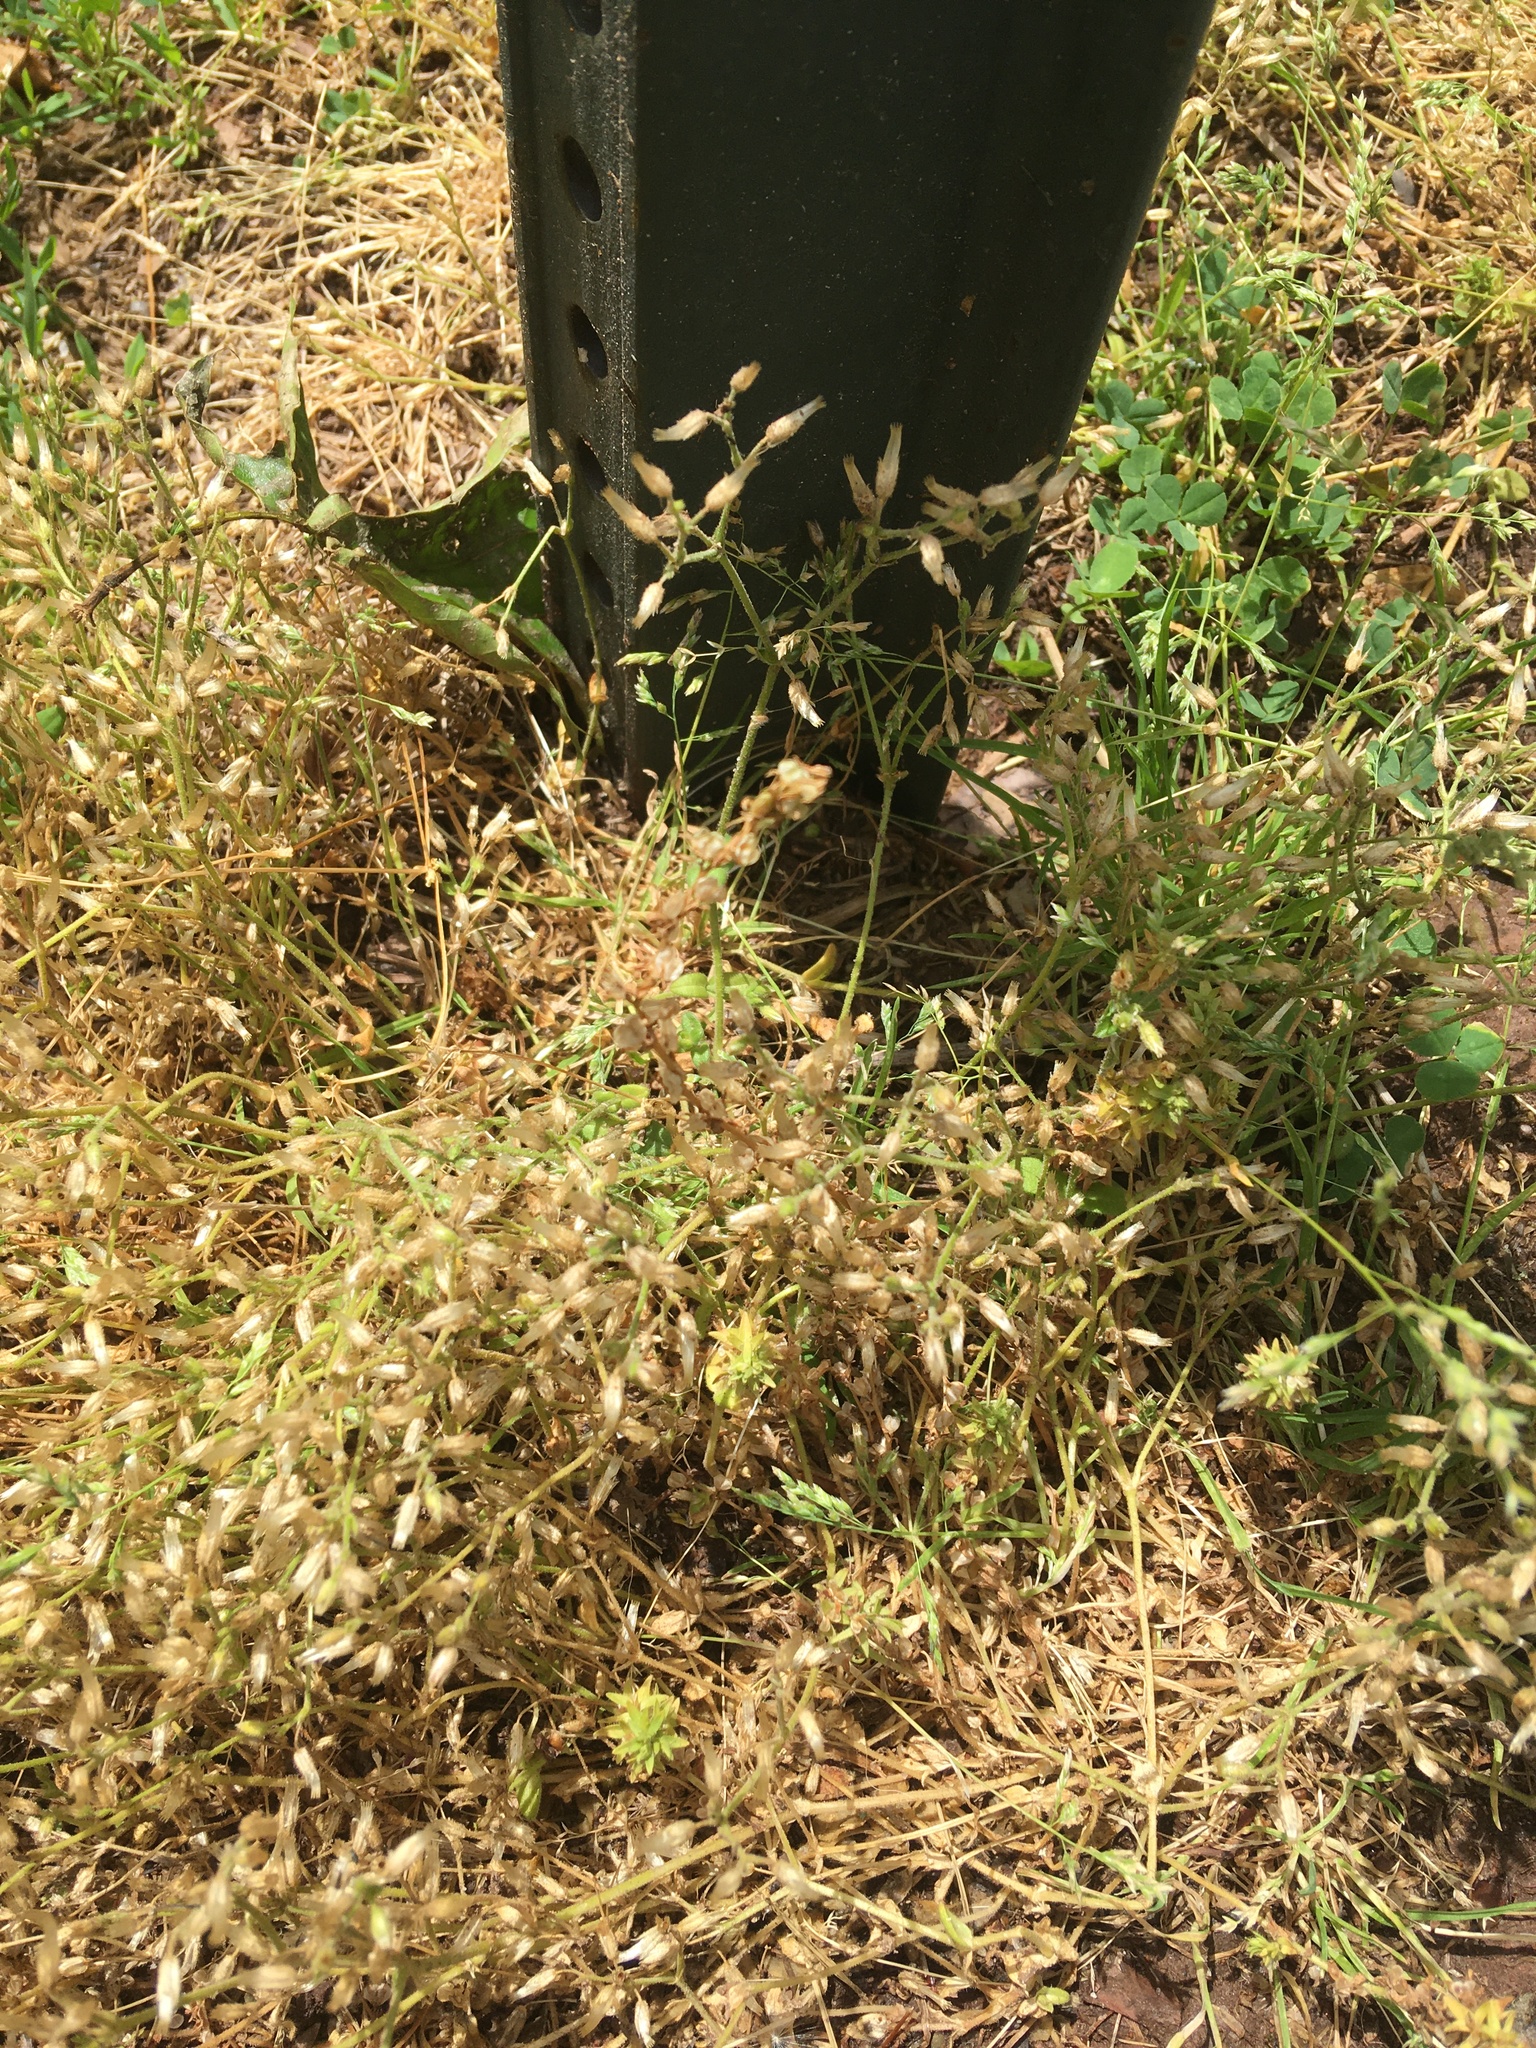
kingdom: Plantae
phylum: Tracheophyta
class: Magnoliopsida
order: Caryophyllales
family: Caryophyllaceae
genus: Cerastium
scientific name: Cerastium arvense
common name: Field mouse-ear
